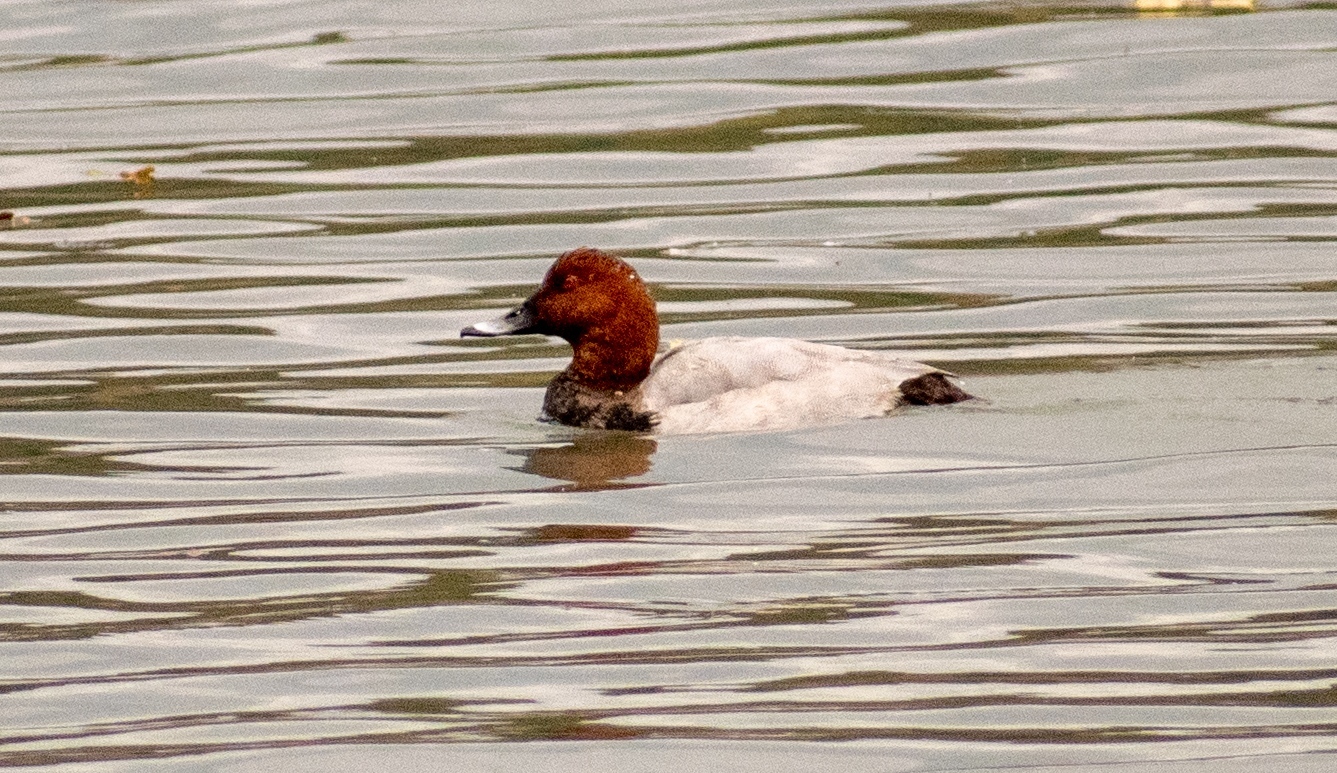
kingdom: Animalia
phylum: Chordata
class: Aves
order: Anseriformes
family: Anatidae
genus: Aythya
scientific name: Aythya ferina
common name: Common pochard
